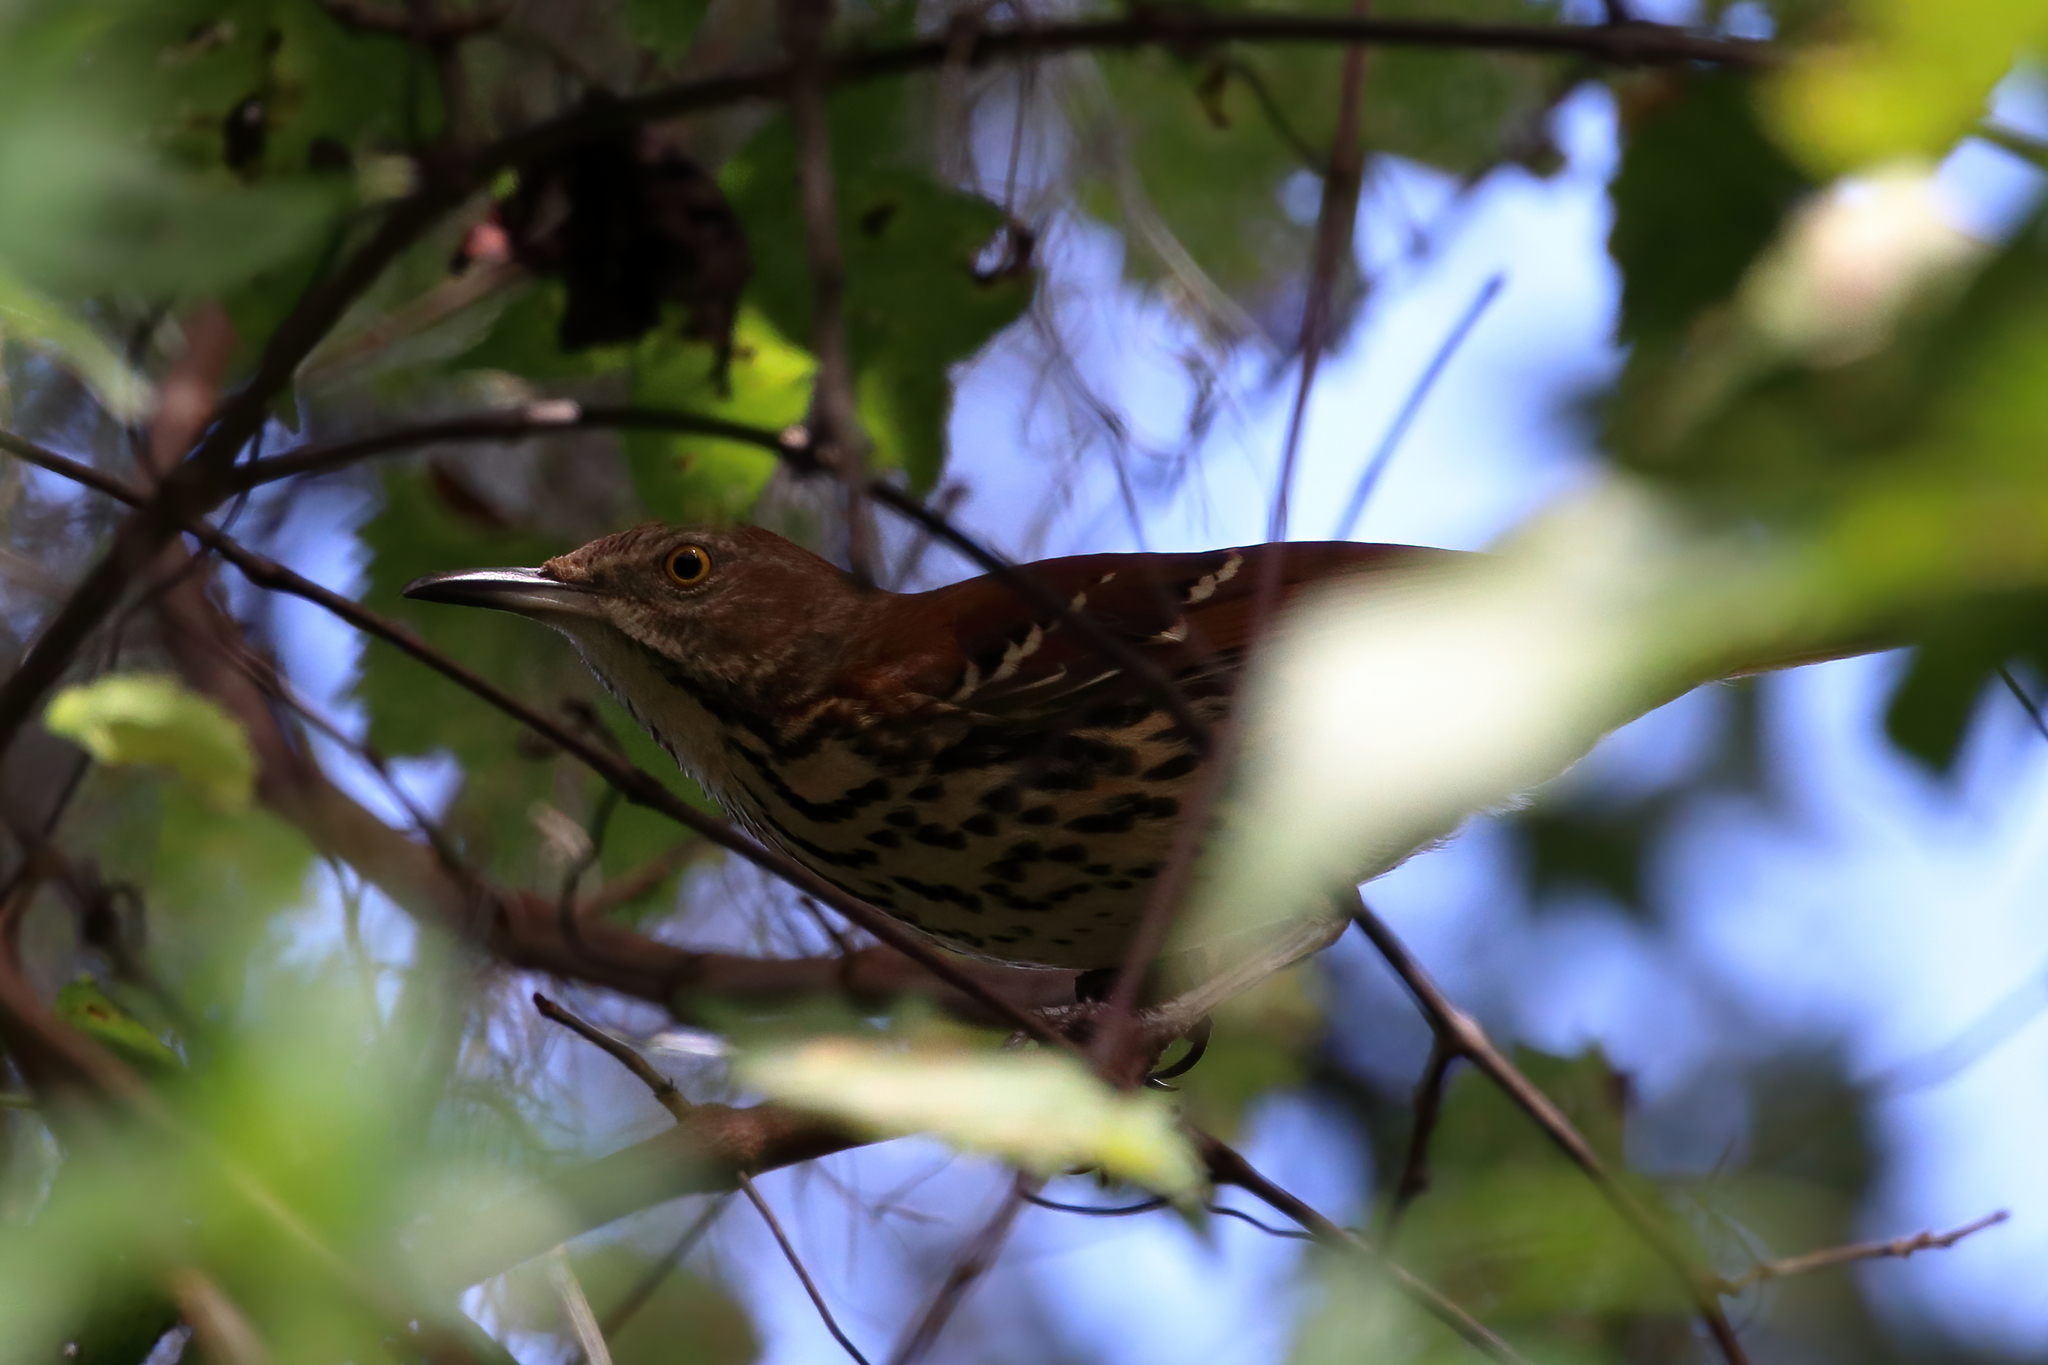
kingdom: Animalia
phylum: Chordata
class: Aves
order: Passeriformes
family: Mimidae
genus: Toxostoma
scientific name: Toxostoma rufum
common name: Brown thrasher
